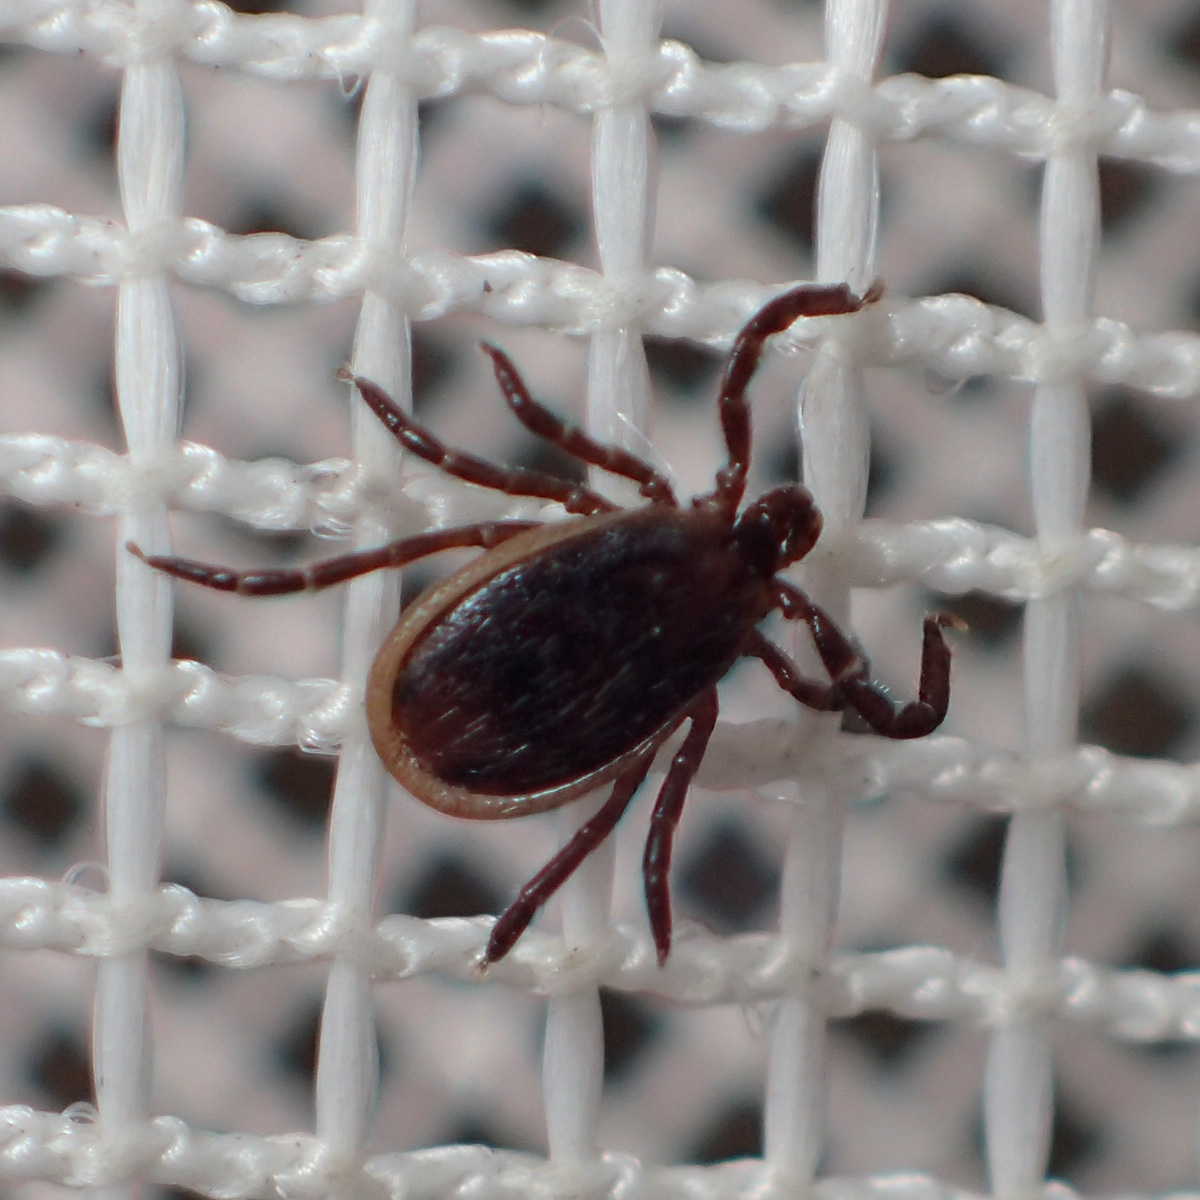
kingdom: Animalia
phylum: Arthropoda
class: Arachnida
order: Ixodida
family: Ixodidae
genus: Ixodes
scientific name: Ixodes scapularis
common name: Black legged tick
